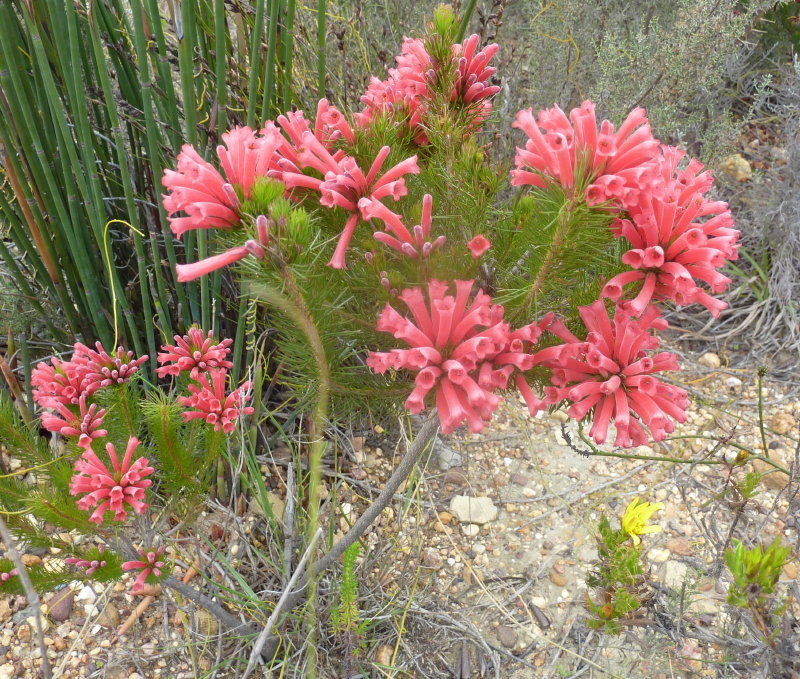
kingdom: Plantae
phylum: Tracheophyta
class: Magnoliopsida
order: Ericales
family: Ericaceae
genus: Erica
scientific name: Erica vestita
